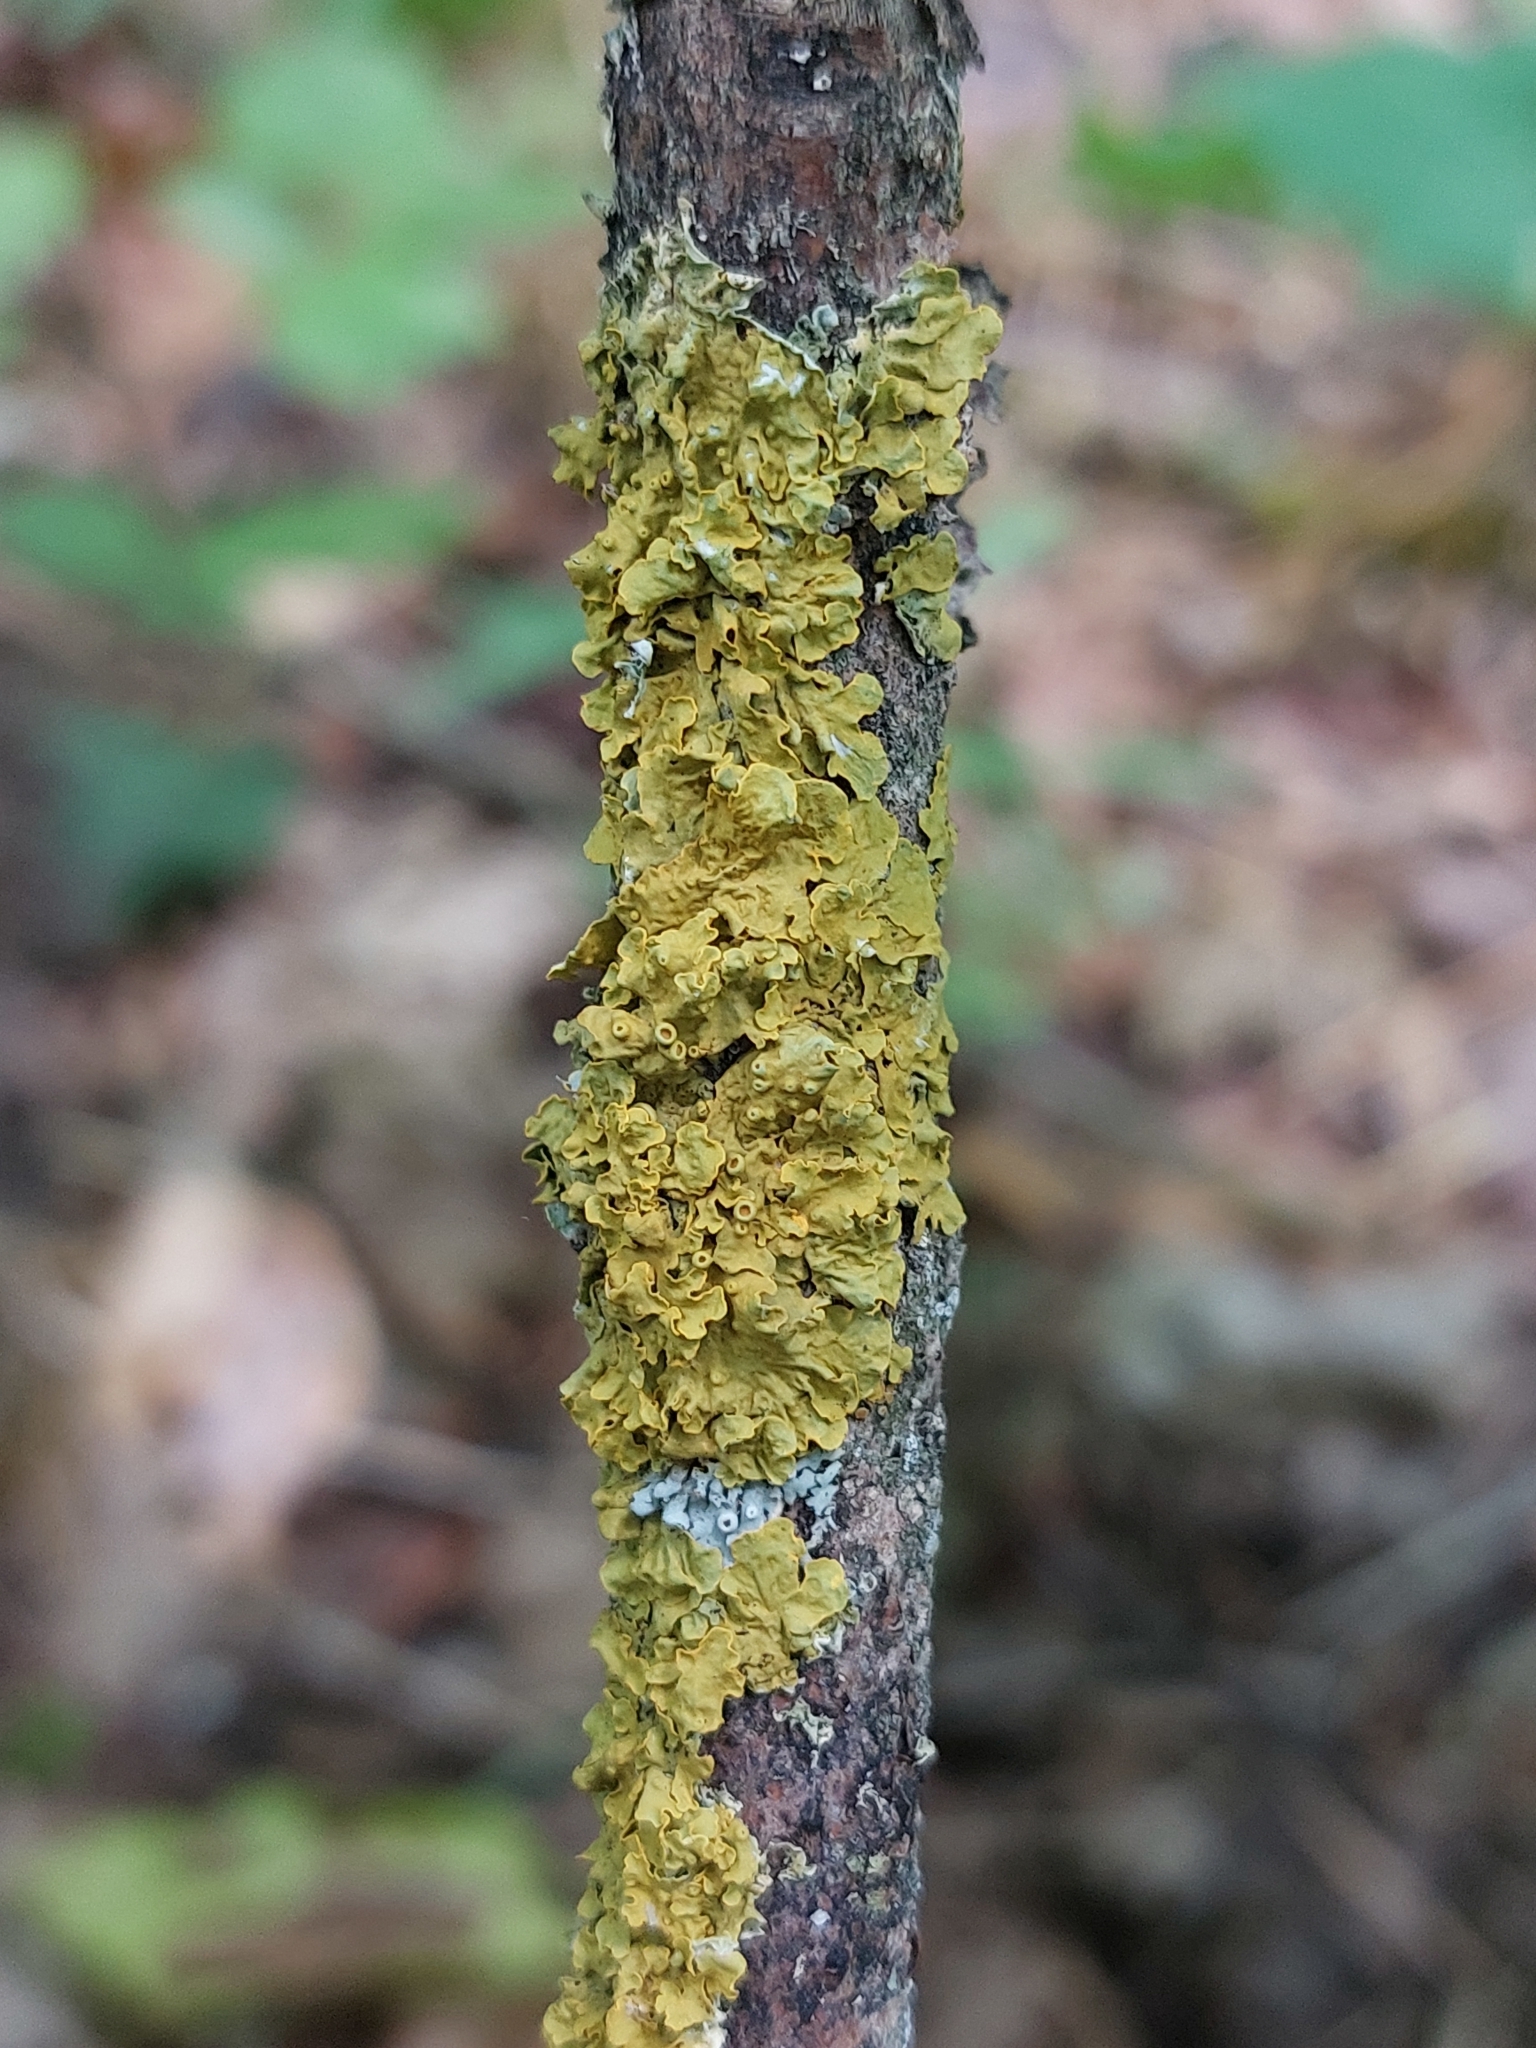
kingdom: Fungi
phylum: Ascomycota
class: Lecanoromycetes
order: Teloschistales
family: Teloschistaceae
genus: Xanthoria
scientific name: Xanthoria parietina
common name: Common orange lichen
